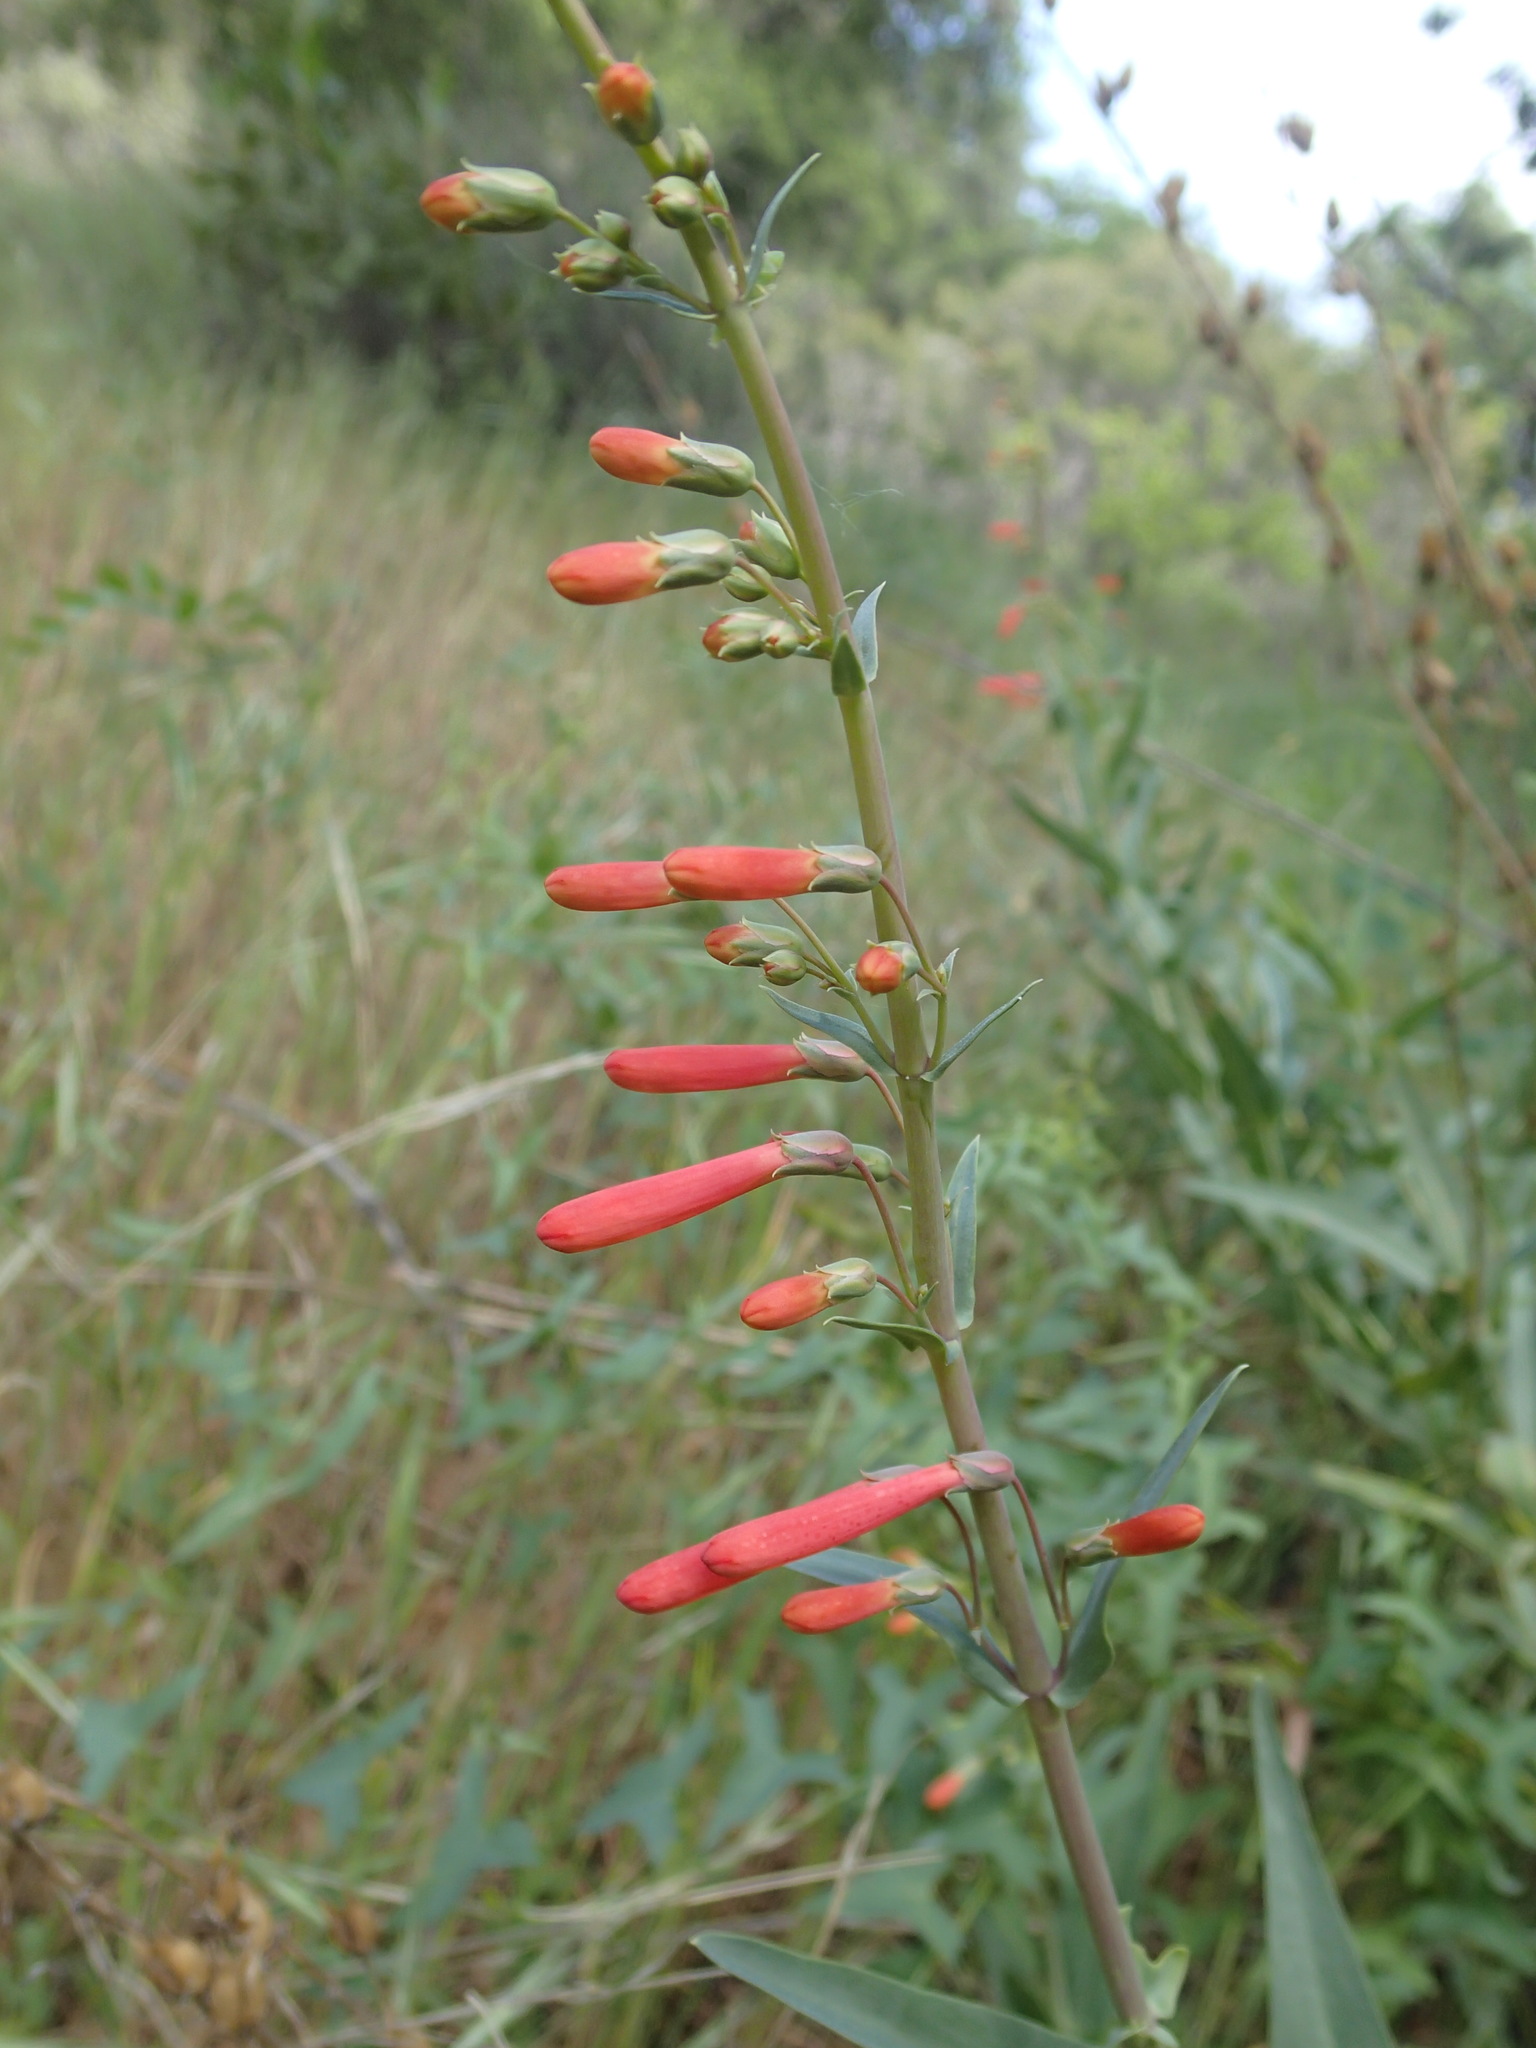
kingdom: Plantae
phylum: Tracheophyta
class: Magnoliopsida
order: Lamiales
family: Plantaginaceae
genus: Penstemon
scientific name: Penstemon centranthifolius
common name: Scarlet bugler
